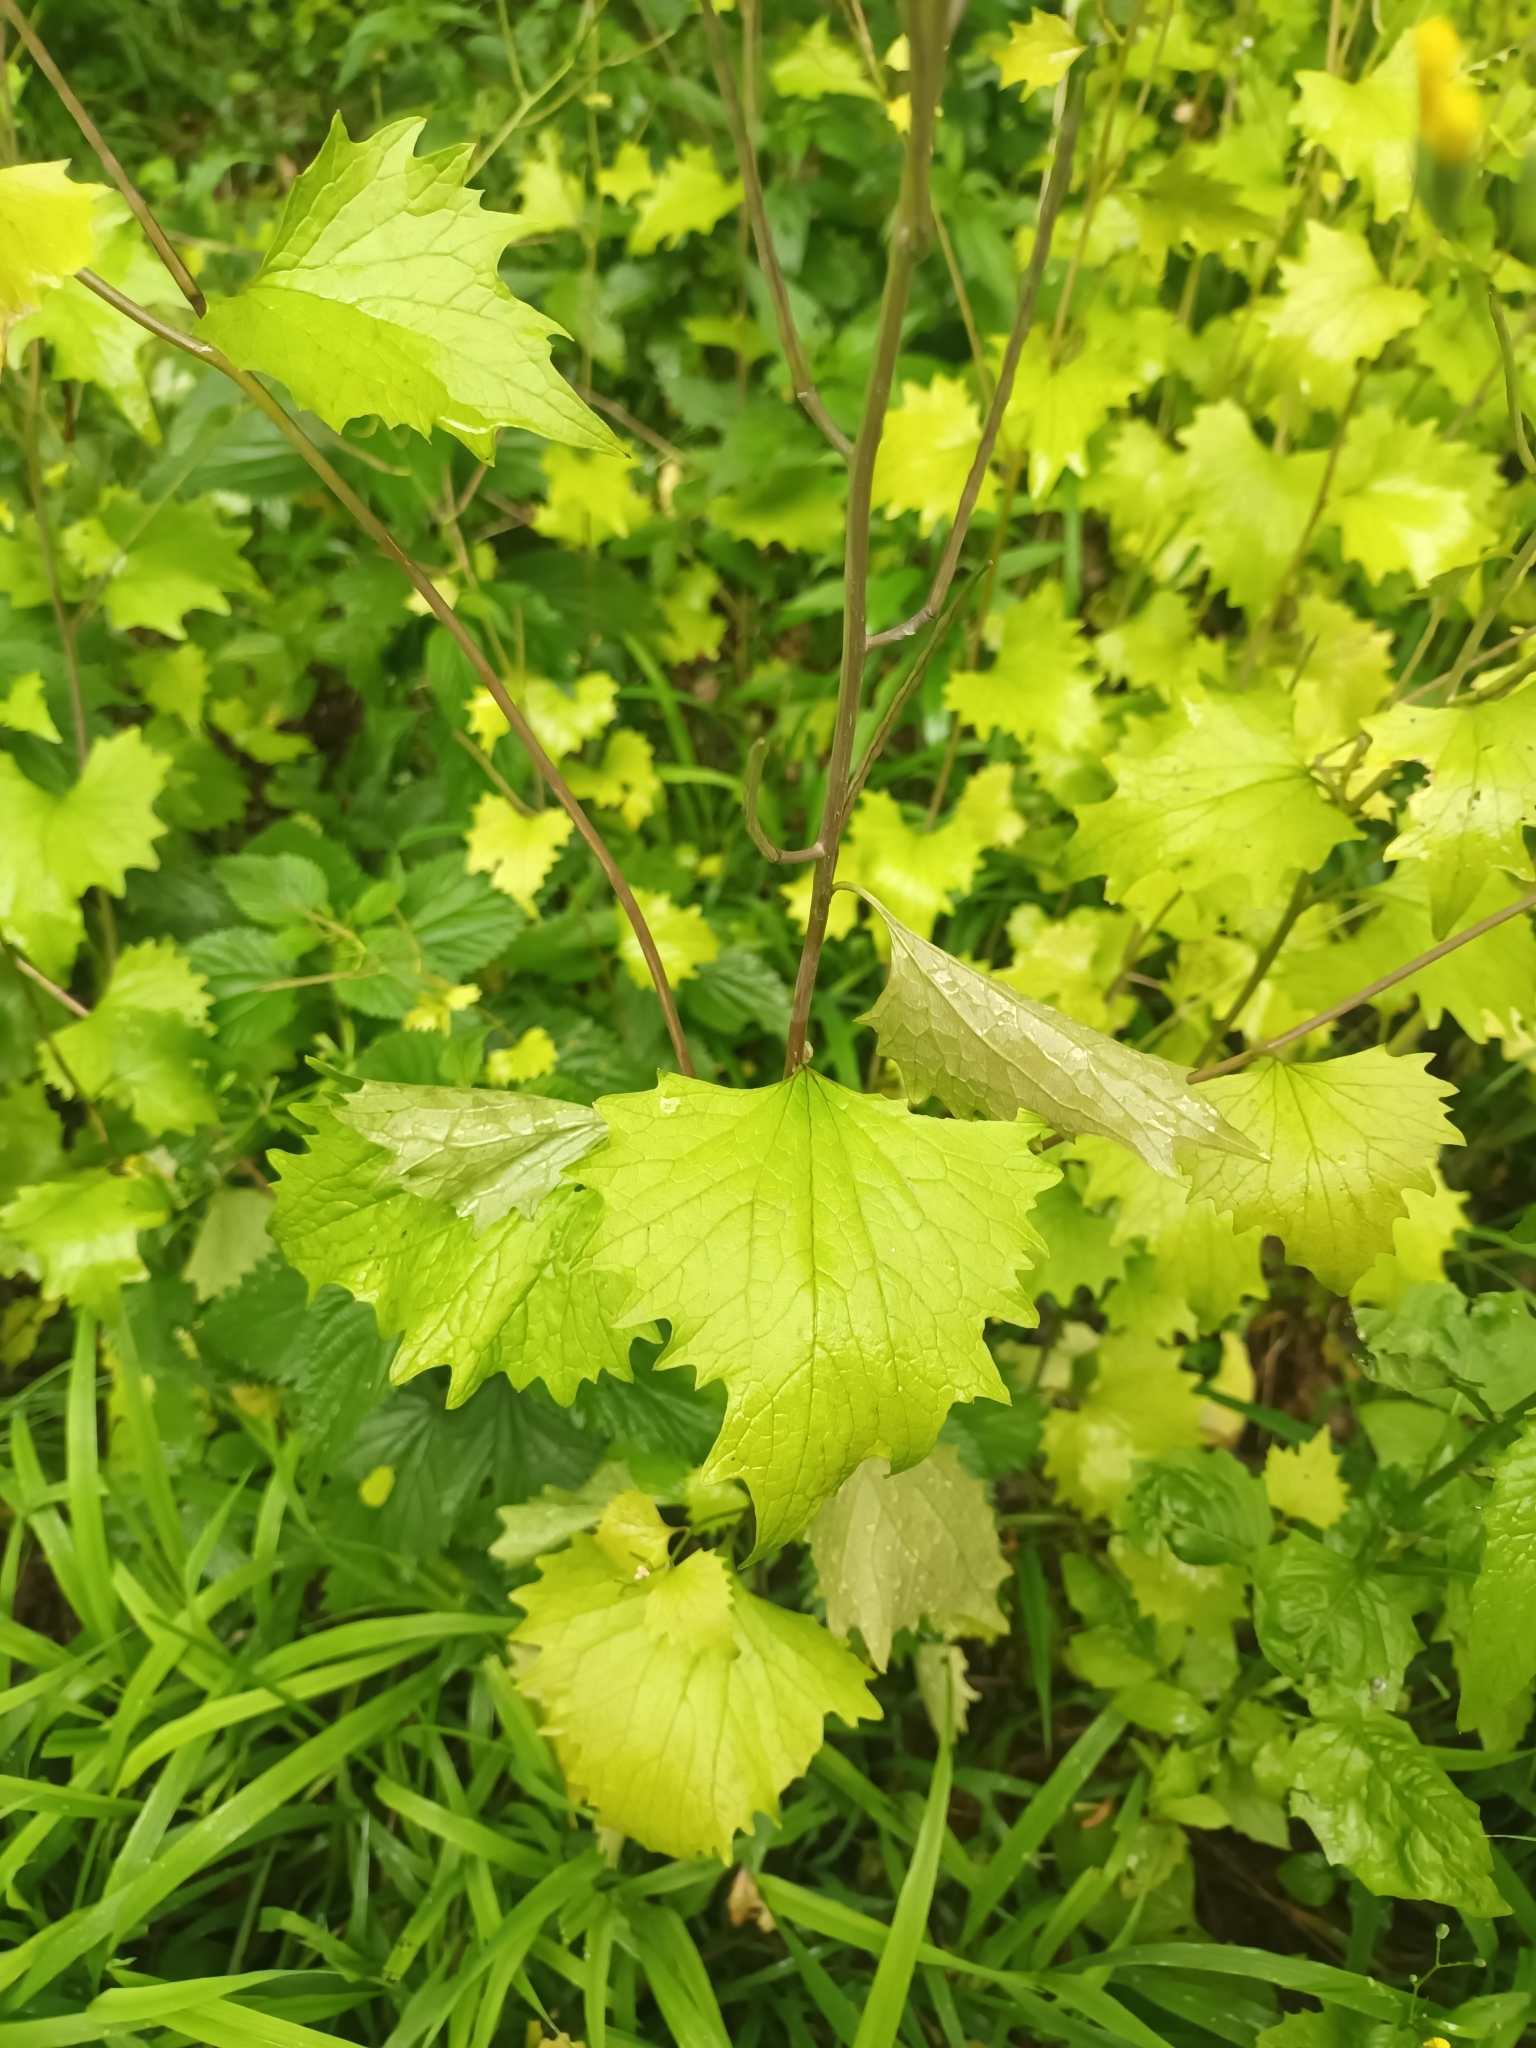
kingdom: Plantae
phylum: Tracheophyta
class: Magnoliopsida
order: Brassicales
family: Brassicaceae
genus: Alliaria
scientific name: Alliaria petiolata
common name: Garlic mustard
